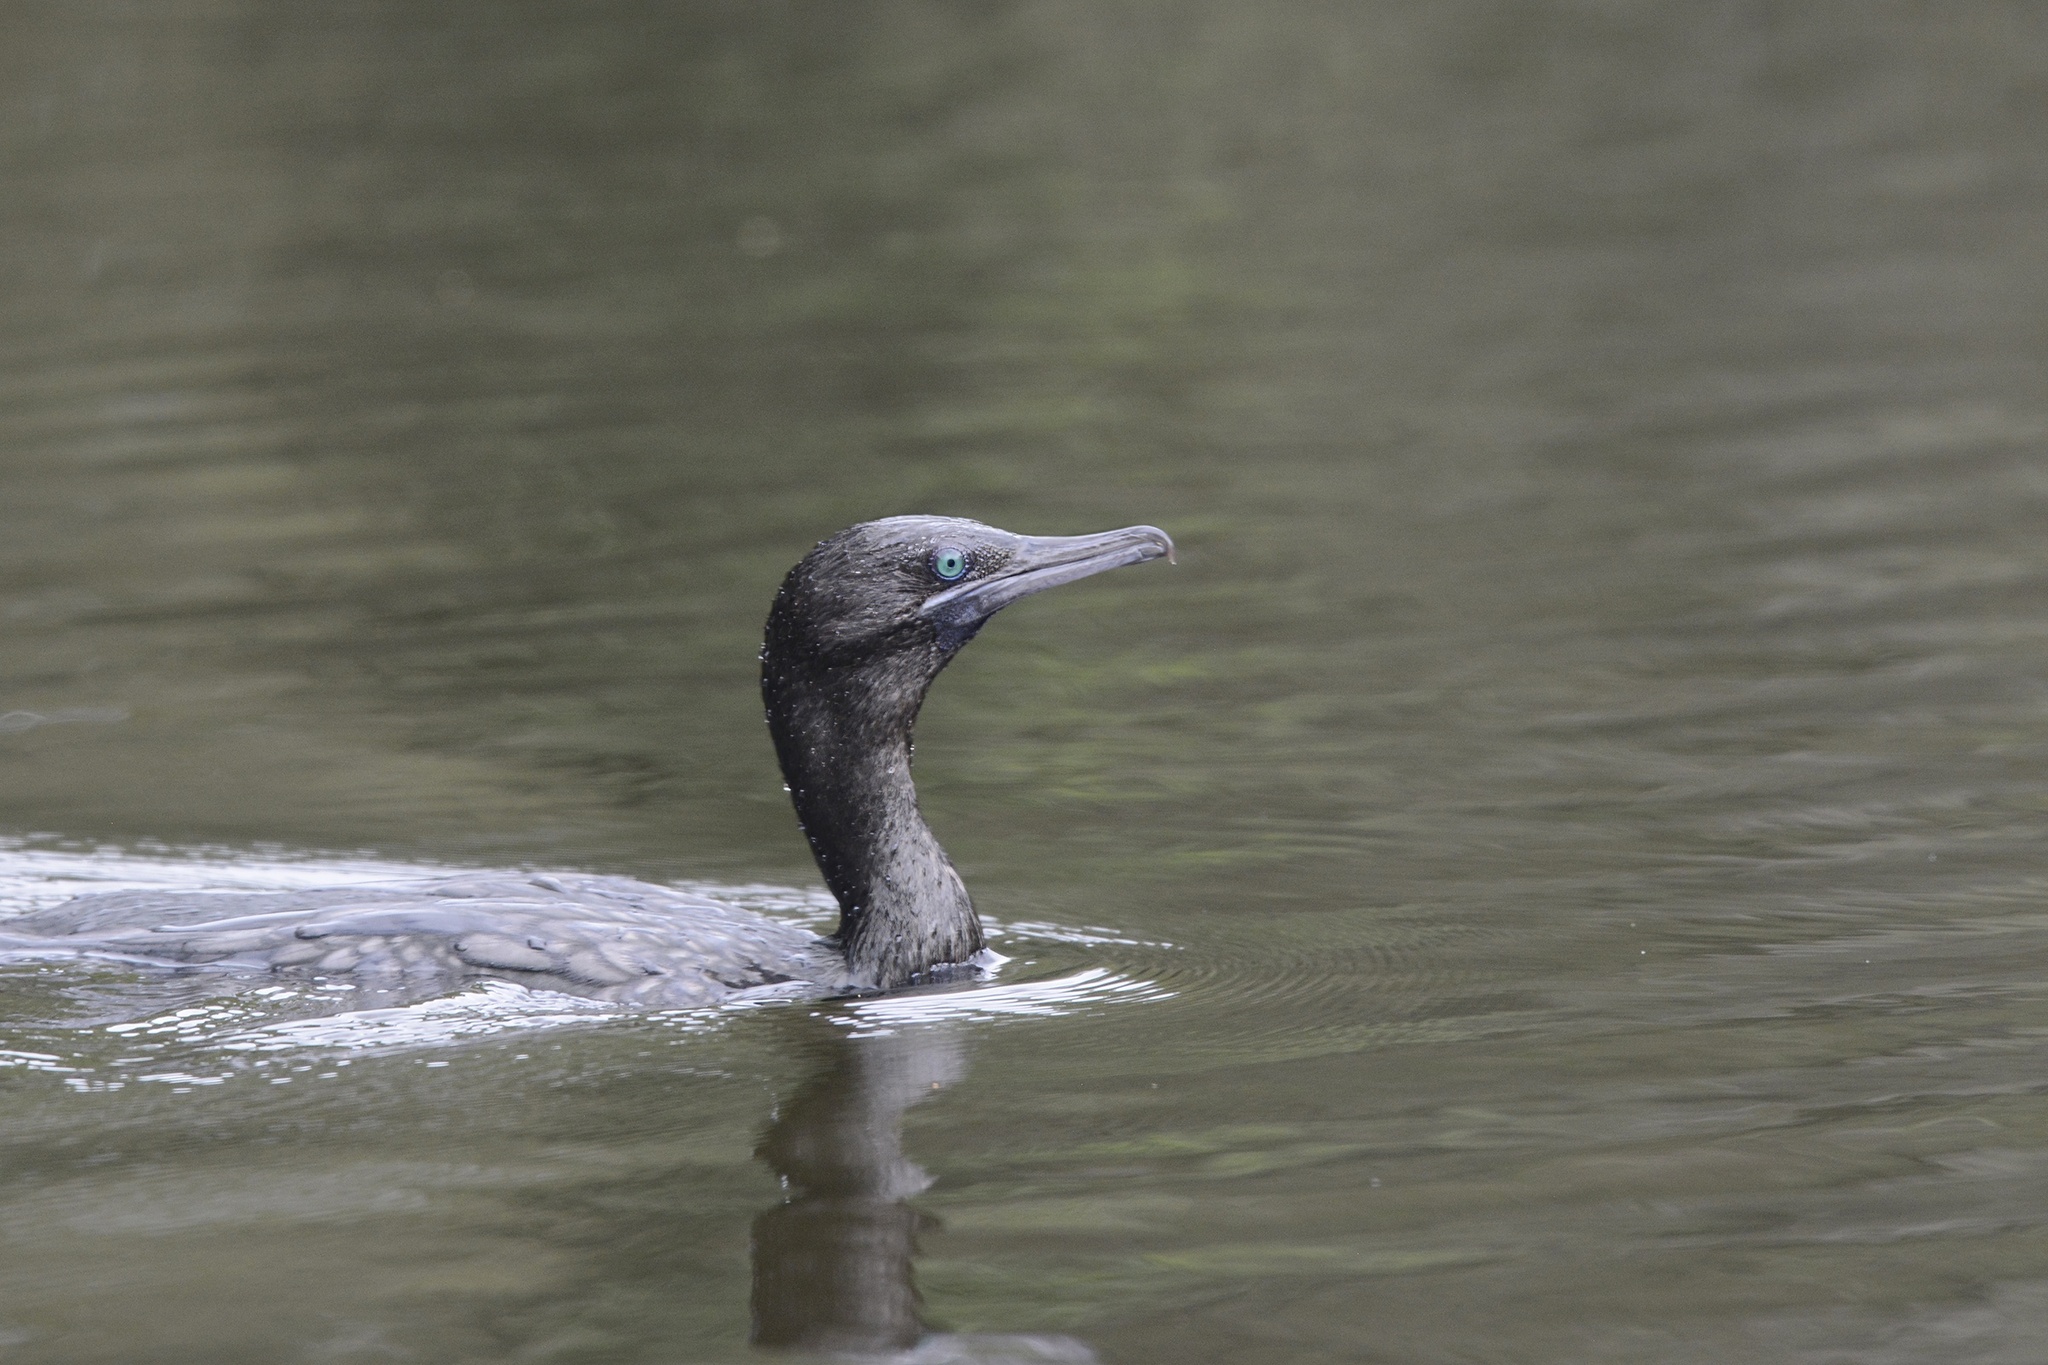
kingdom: Animalia
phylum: Chordata
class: Aves
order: Suliformes
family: Phalacrocoracidae
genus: Phalacrocorax
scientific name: Phalacrocorax sulcirostris
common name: Little black cormorant
